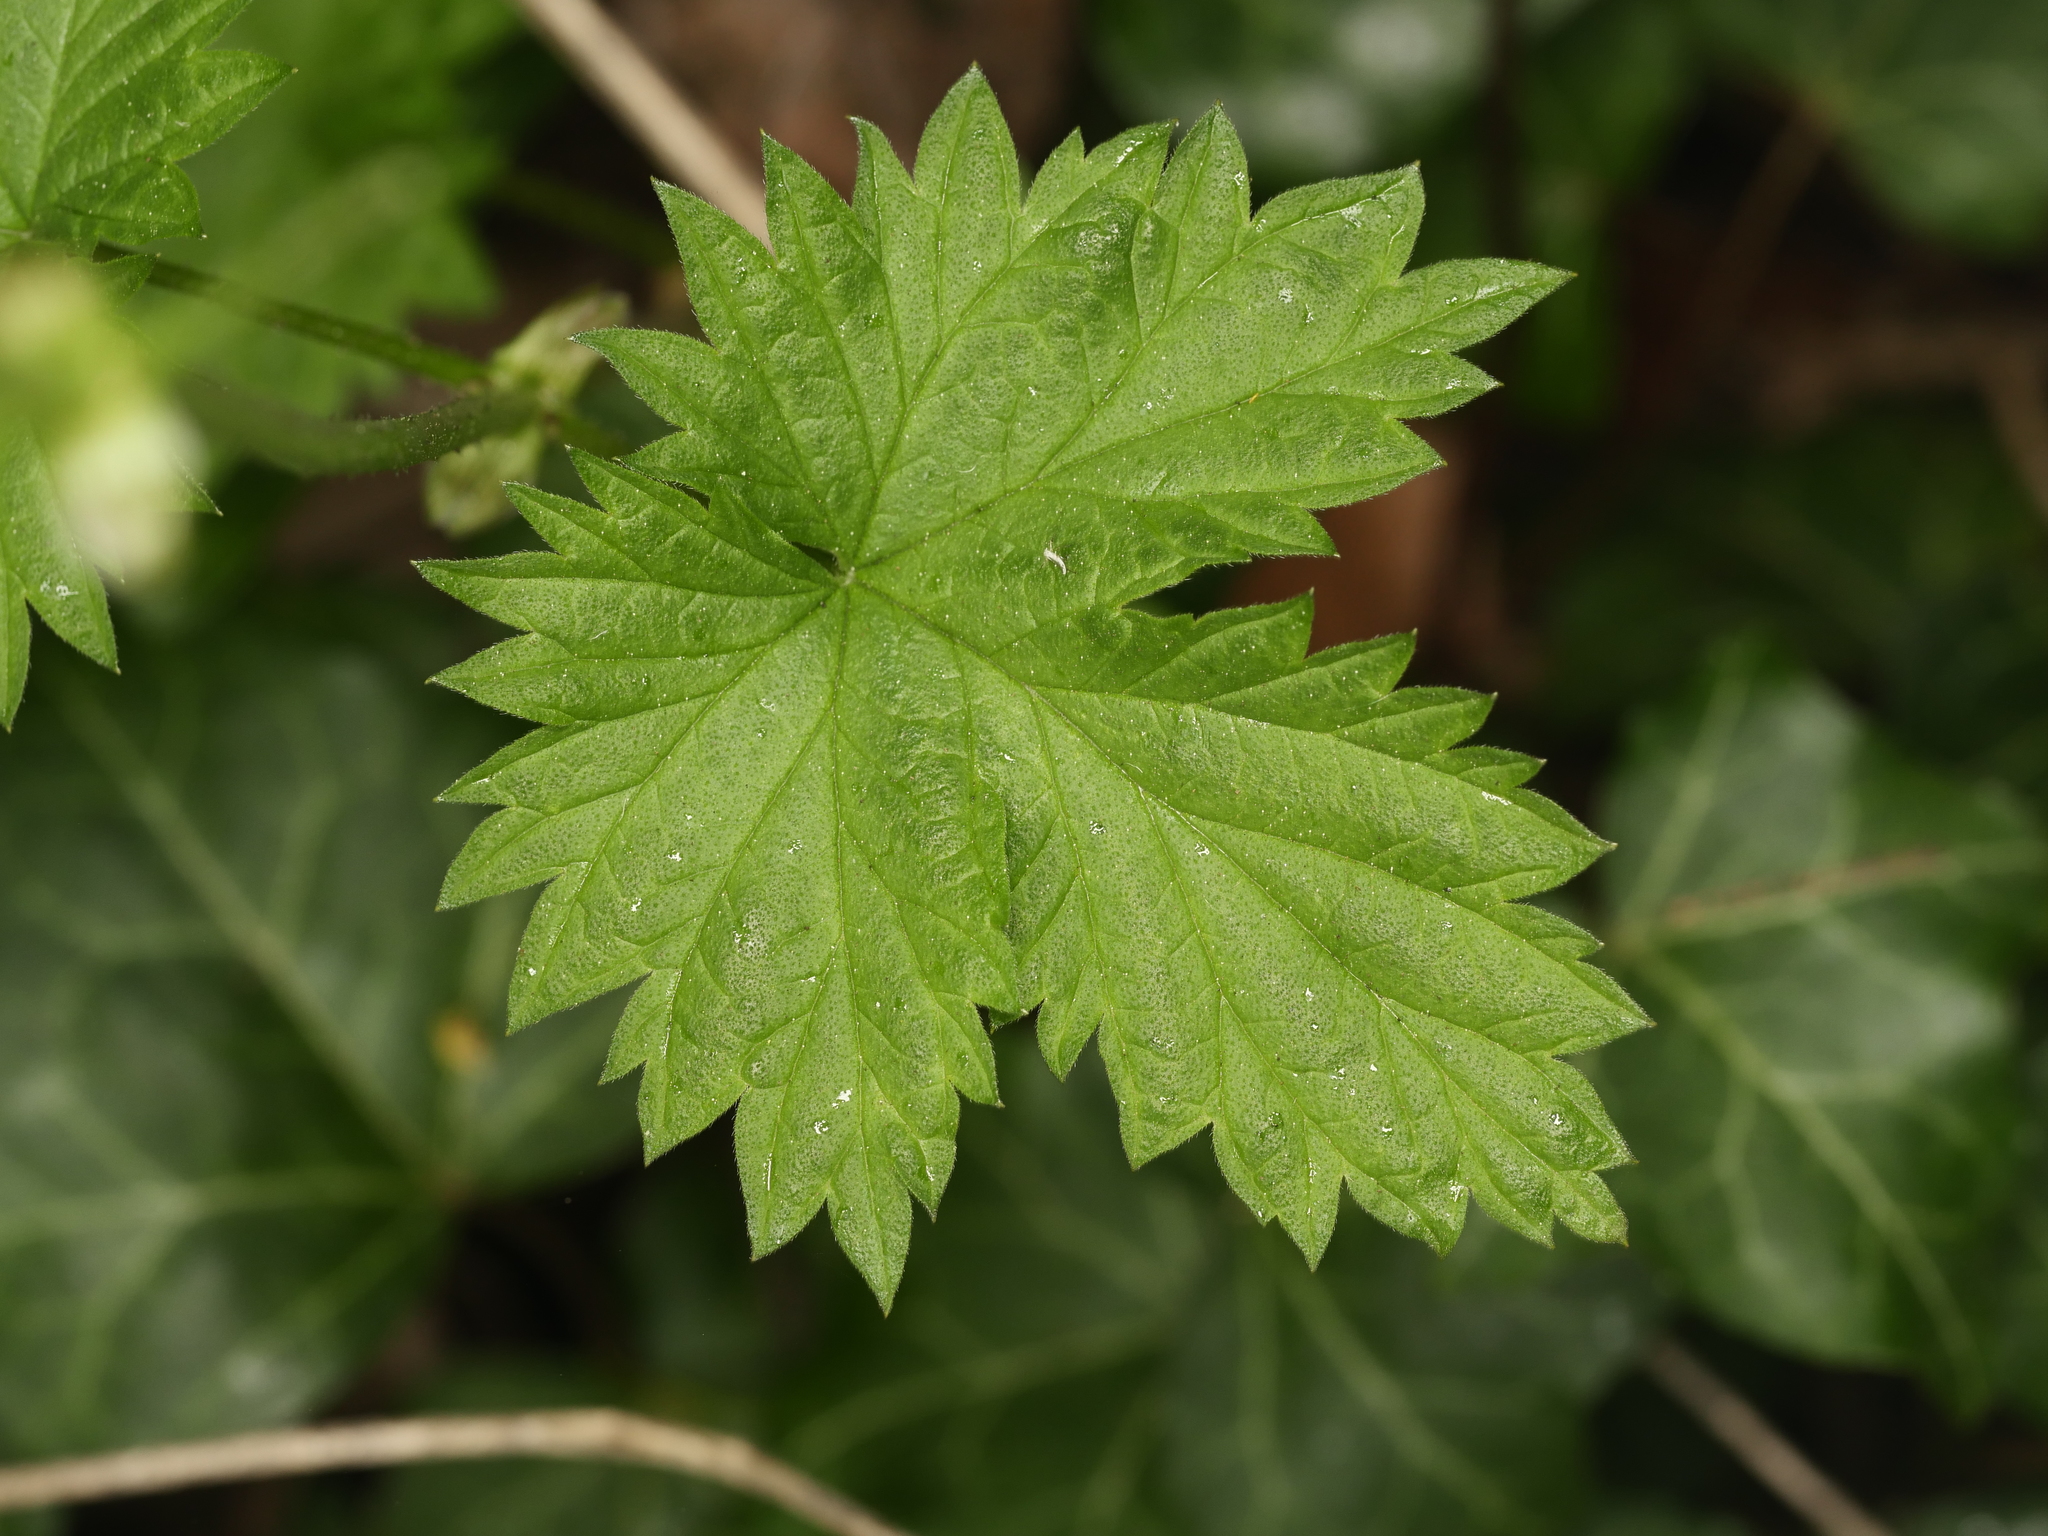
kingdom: Plantae
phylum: Tracheophyta
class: Magnoliopsida
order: Rosales
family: Cannabaceae
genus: Humulus
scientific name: Humulus lupulus
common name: Hop
